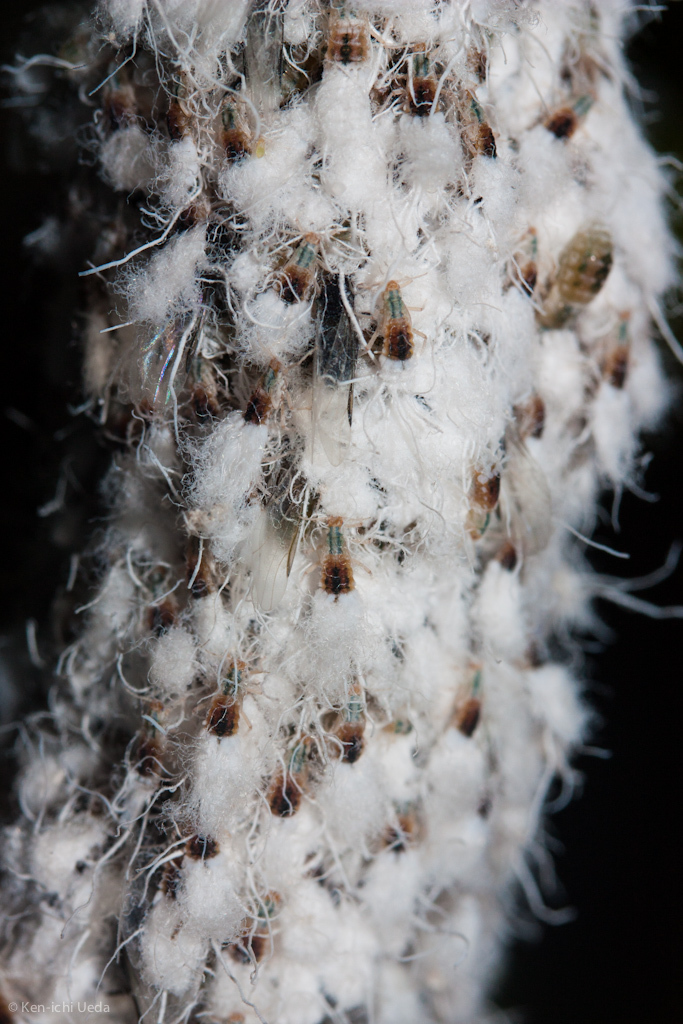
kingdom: Animalia
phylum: Arthropoda
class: Insecta
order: Hemiptera
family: Aphididae
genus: Grylloprociphilus
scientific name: Grylloprociphilus imbricator
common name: Beech blight aphid
